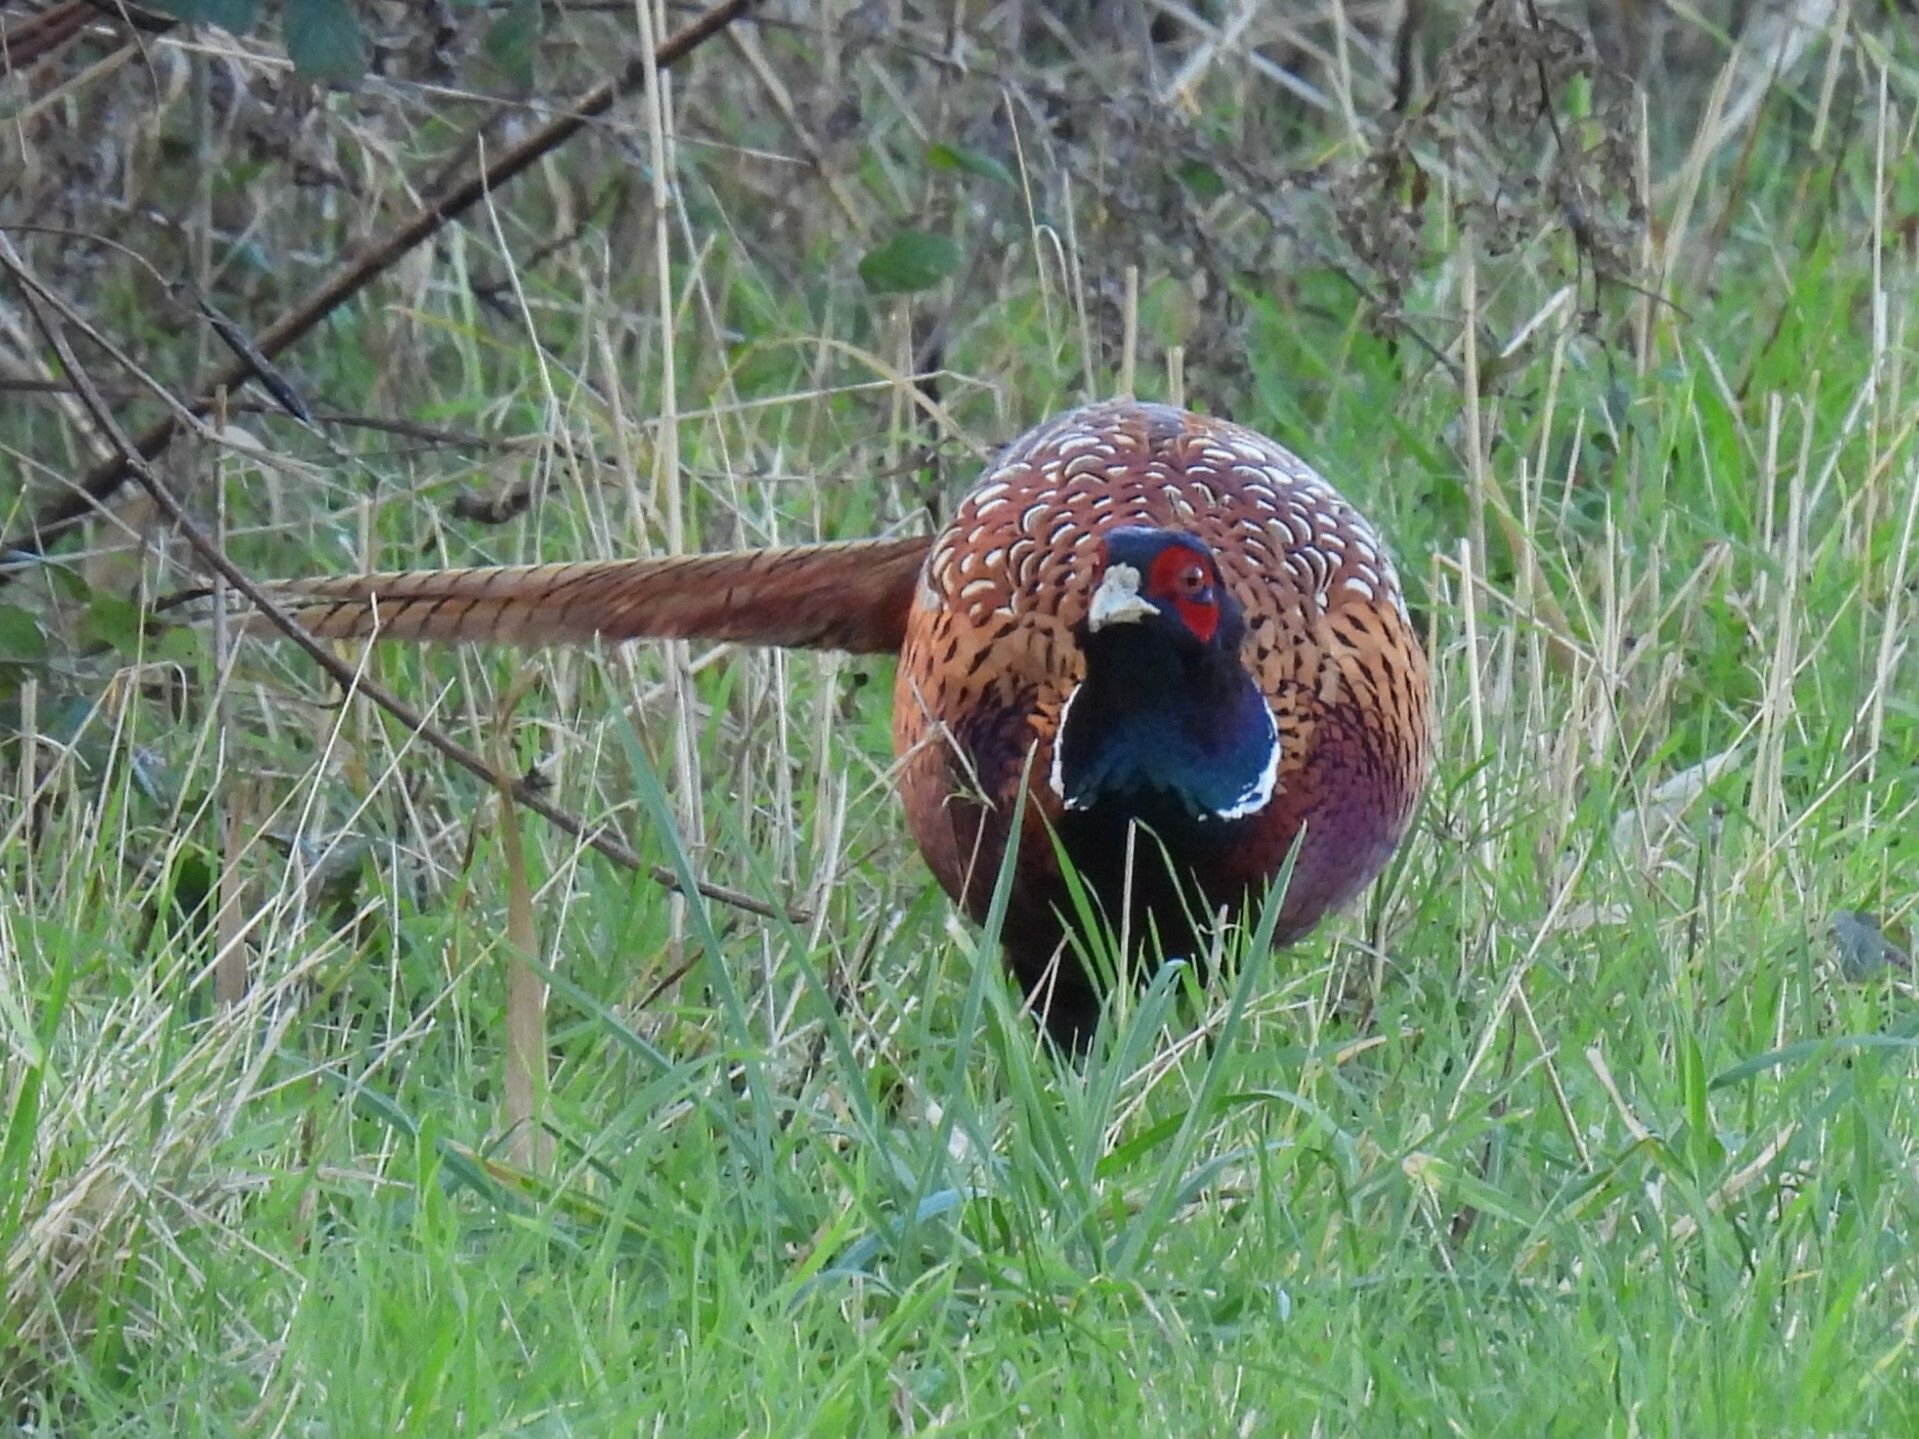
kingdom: Animalia
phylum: Chordata
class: Aves
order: Galliformes
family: Phasianidae
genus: Phasianus
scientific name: Phasianus colchicus
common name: Common pheasant
